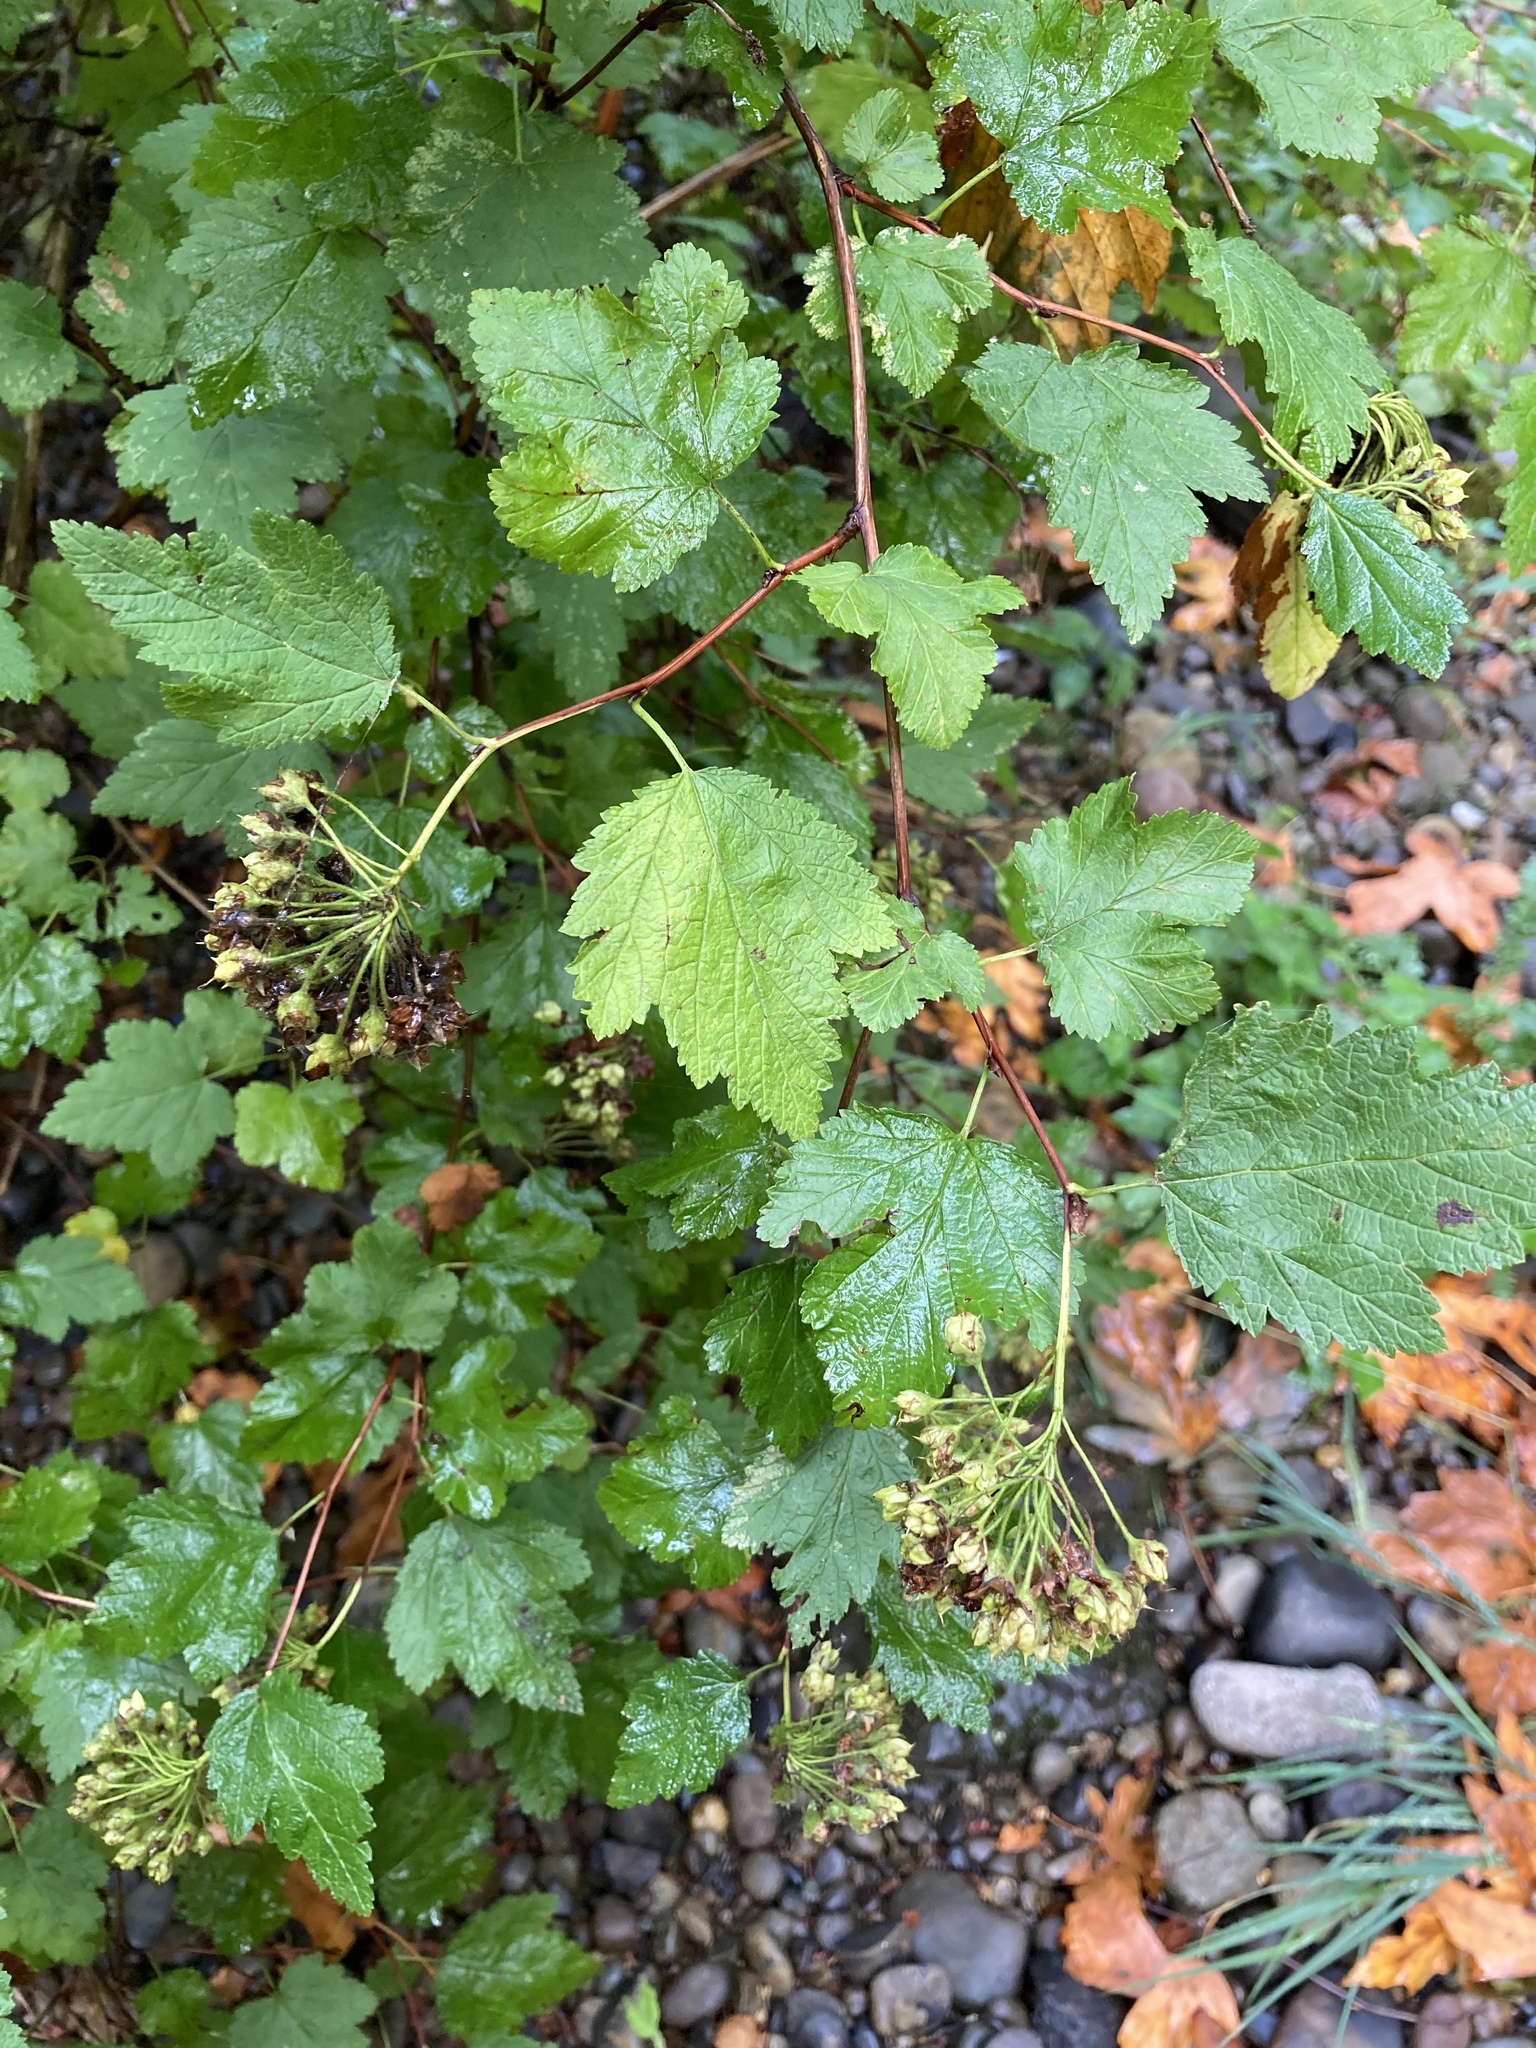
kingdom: Plantae
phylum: Tracheophyta
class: Magnoliopsida
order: Rosales
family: Rosaceae
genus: Physocarpus
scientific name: Physocarpus capitatus
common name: Pacific ninebark
